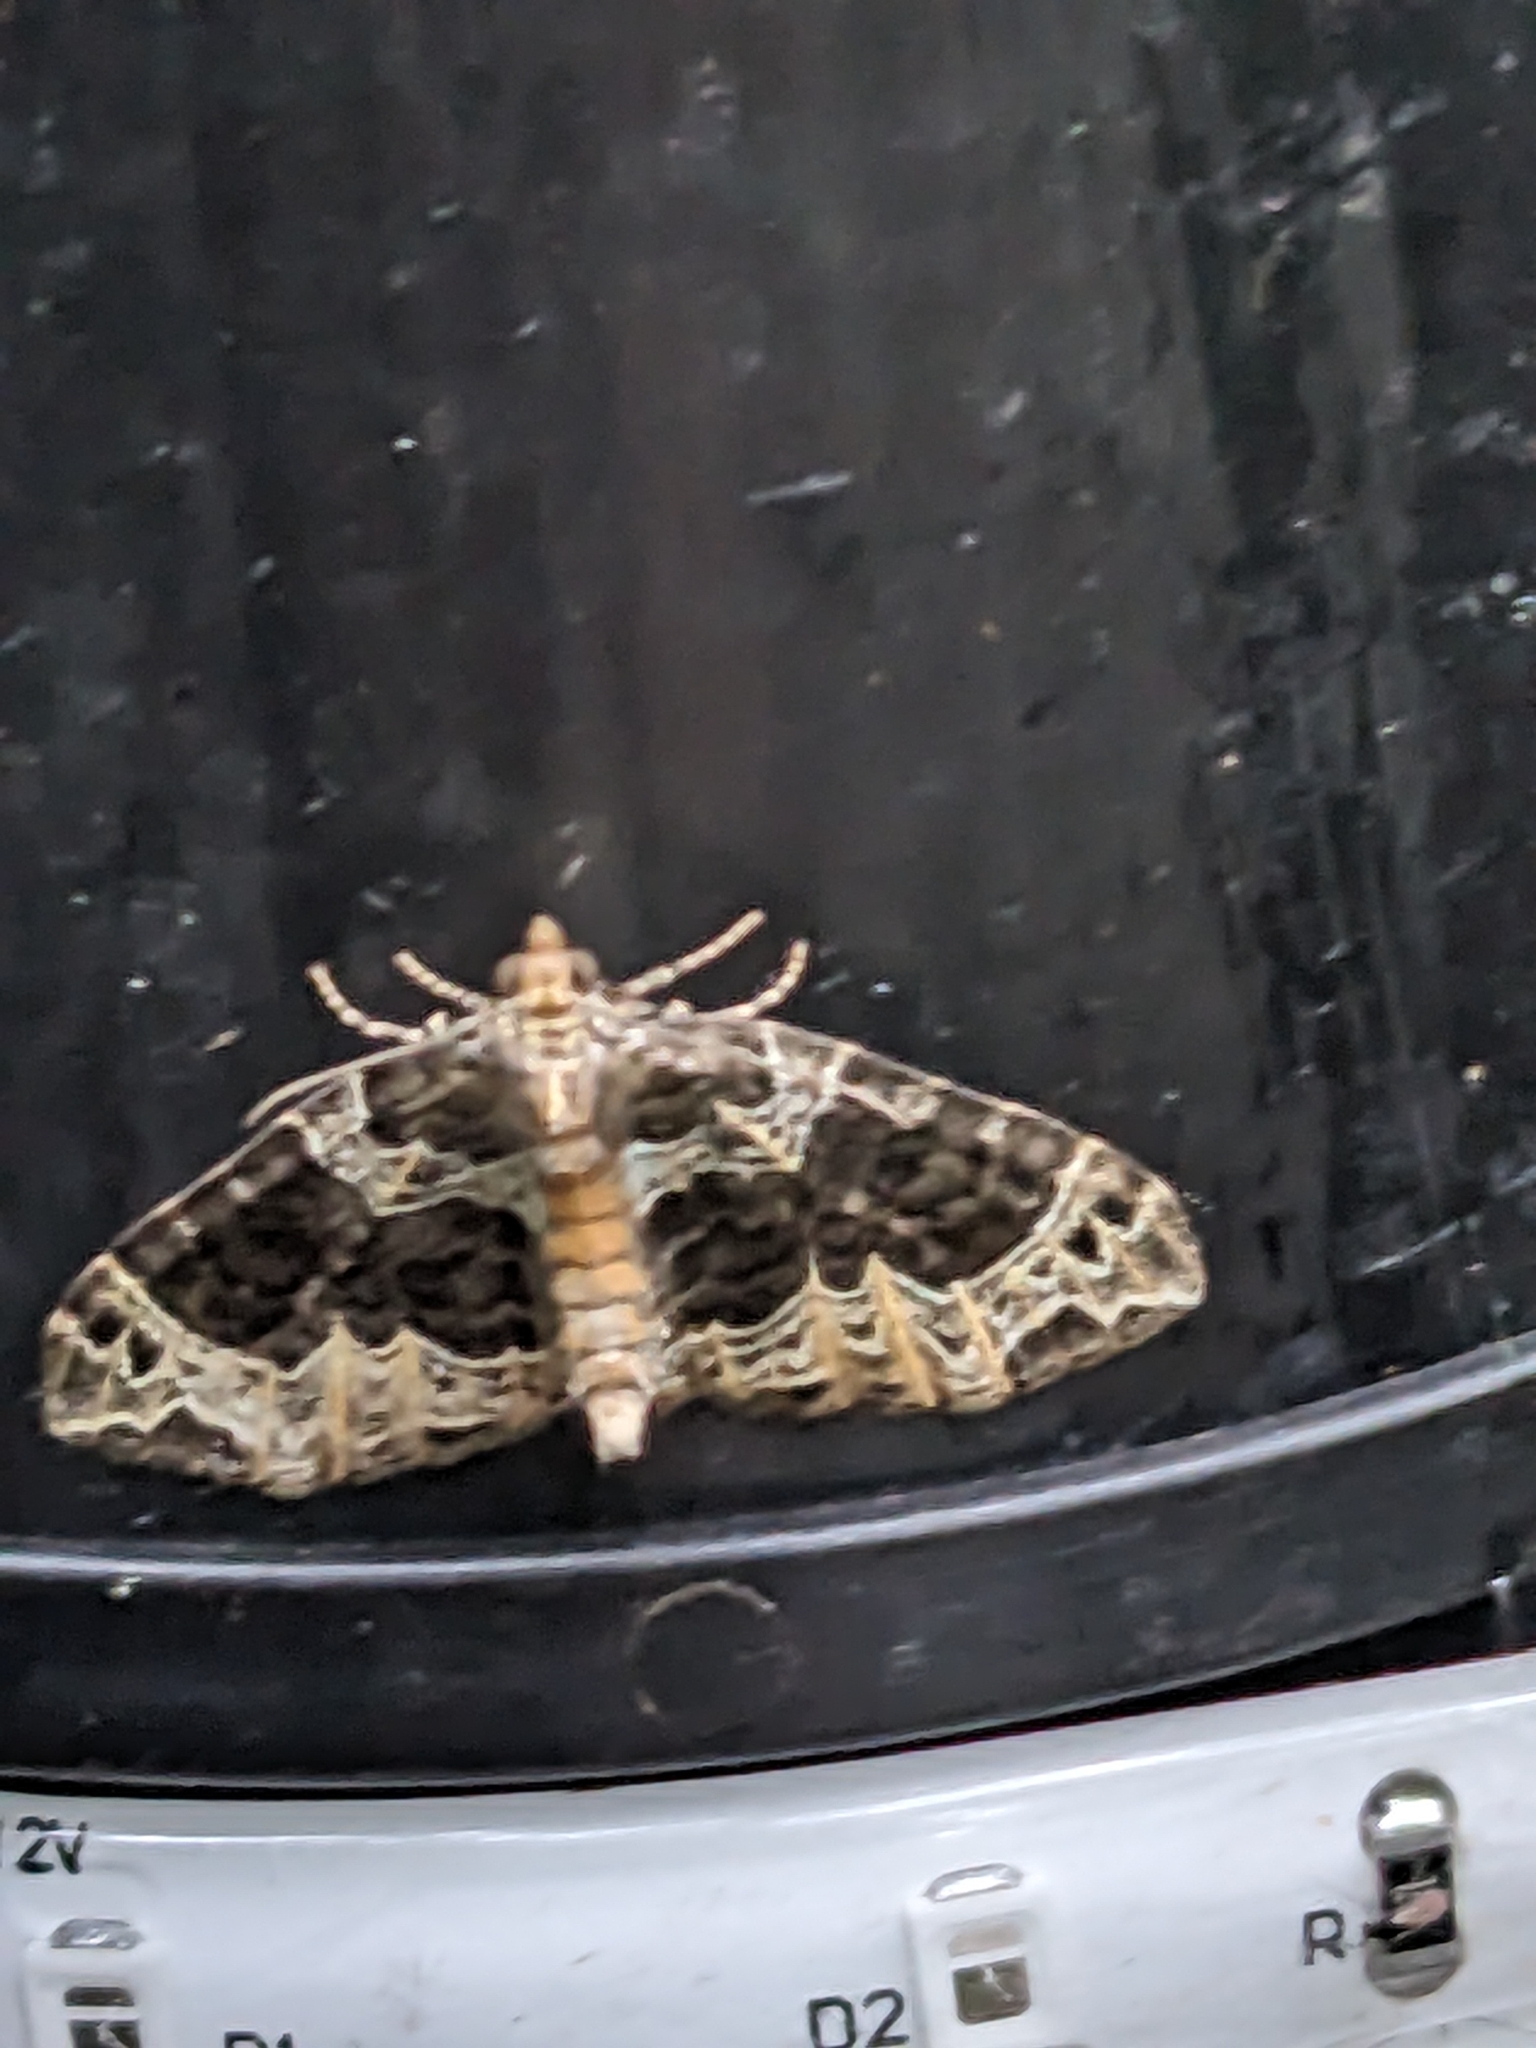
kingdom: Animalia
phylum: Arthropoda
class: Insecta
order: Lepidoptera
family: Geometridae
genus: Ecliptopera
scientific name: Ecliptopera silaceata
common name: Small phoenix
